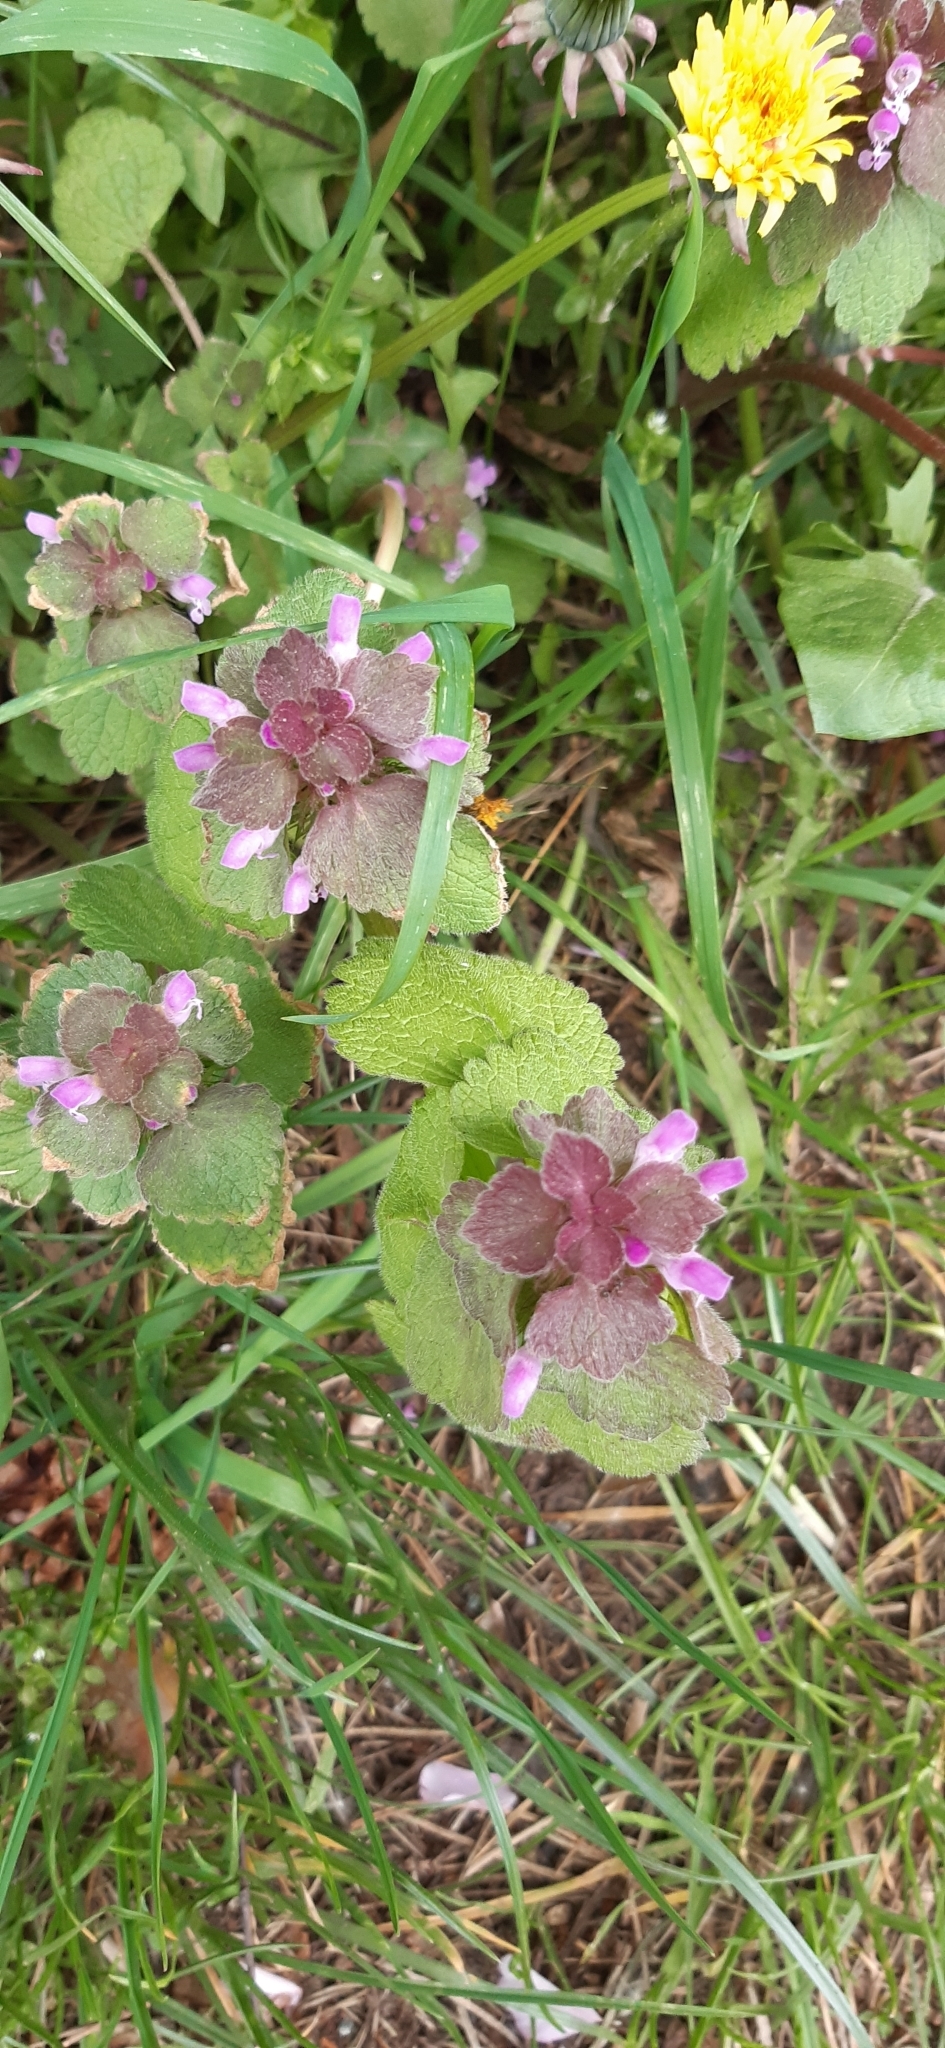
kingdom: Plantae
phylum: Tracheophyta
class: Magnoliopsida
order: Lamiales
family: Lamiaceae
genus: Lamium
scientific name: Lamium purpureum
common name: Red dead-nettle
